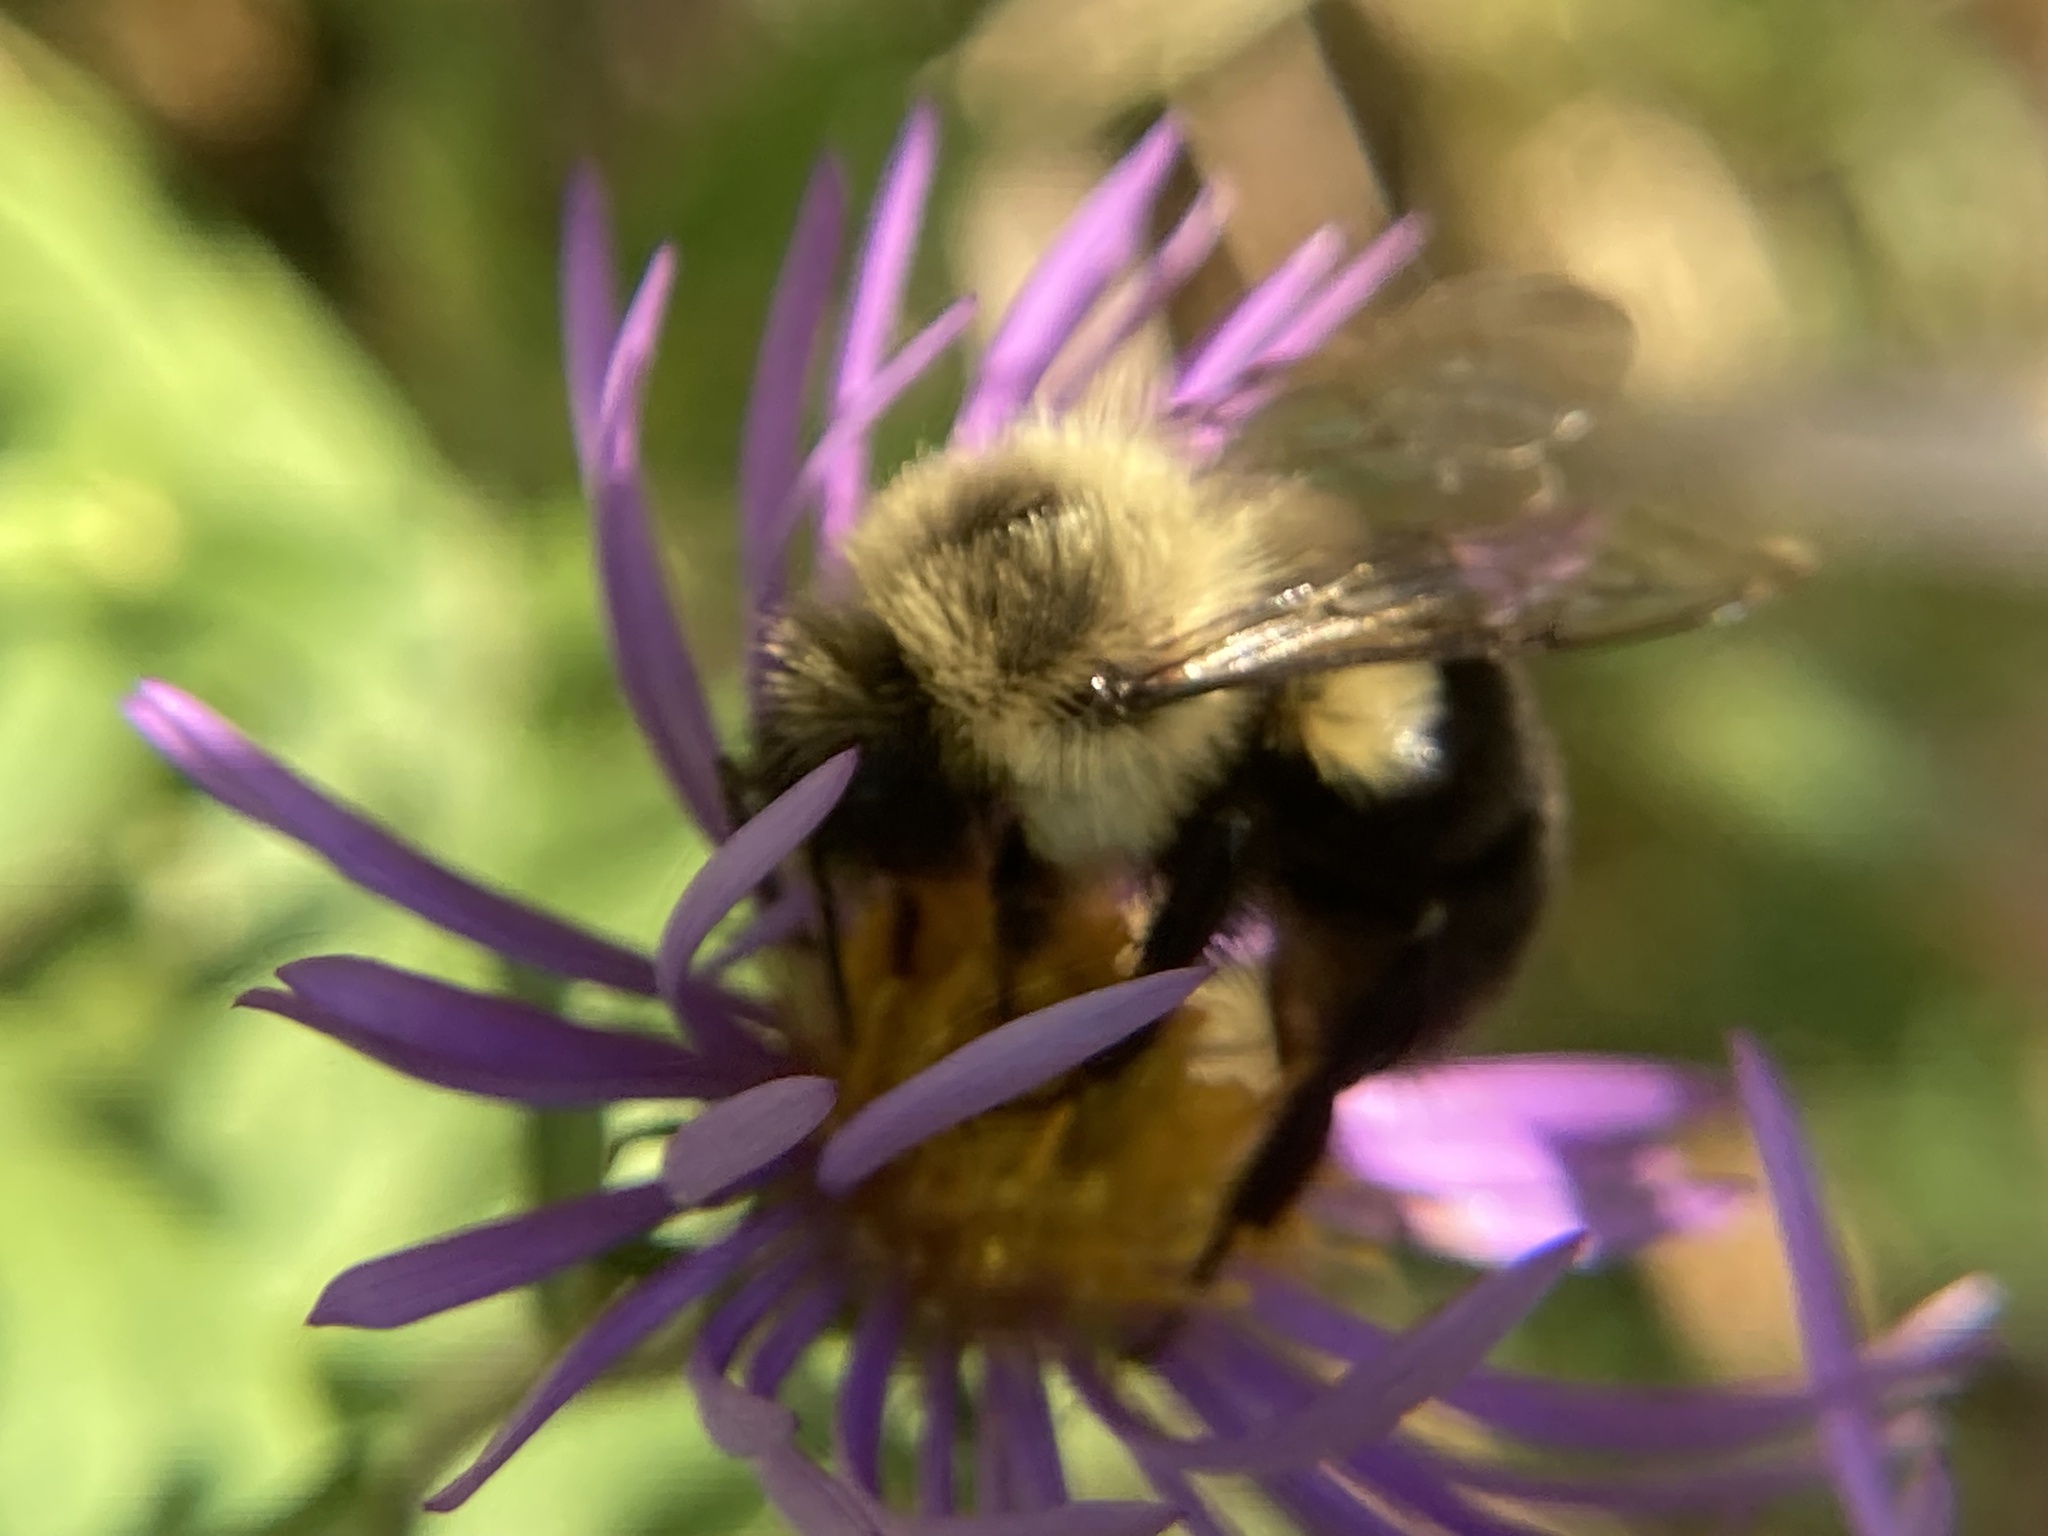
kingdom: Animalia
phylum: Arthropoda
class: Insecta
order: Hymenoptera
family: Apidae
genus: Bombus
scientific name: Bombus impatiens
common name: Common eastern bumble bee
